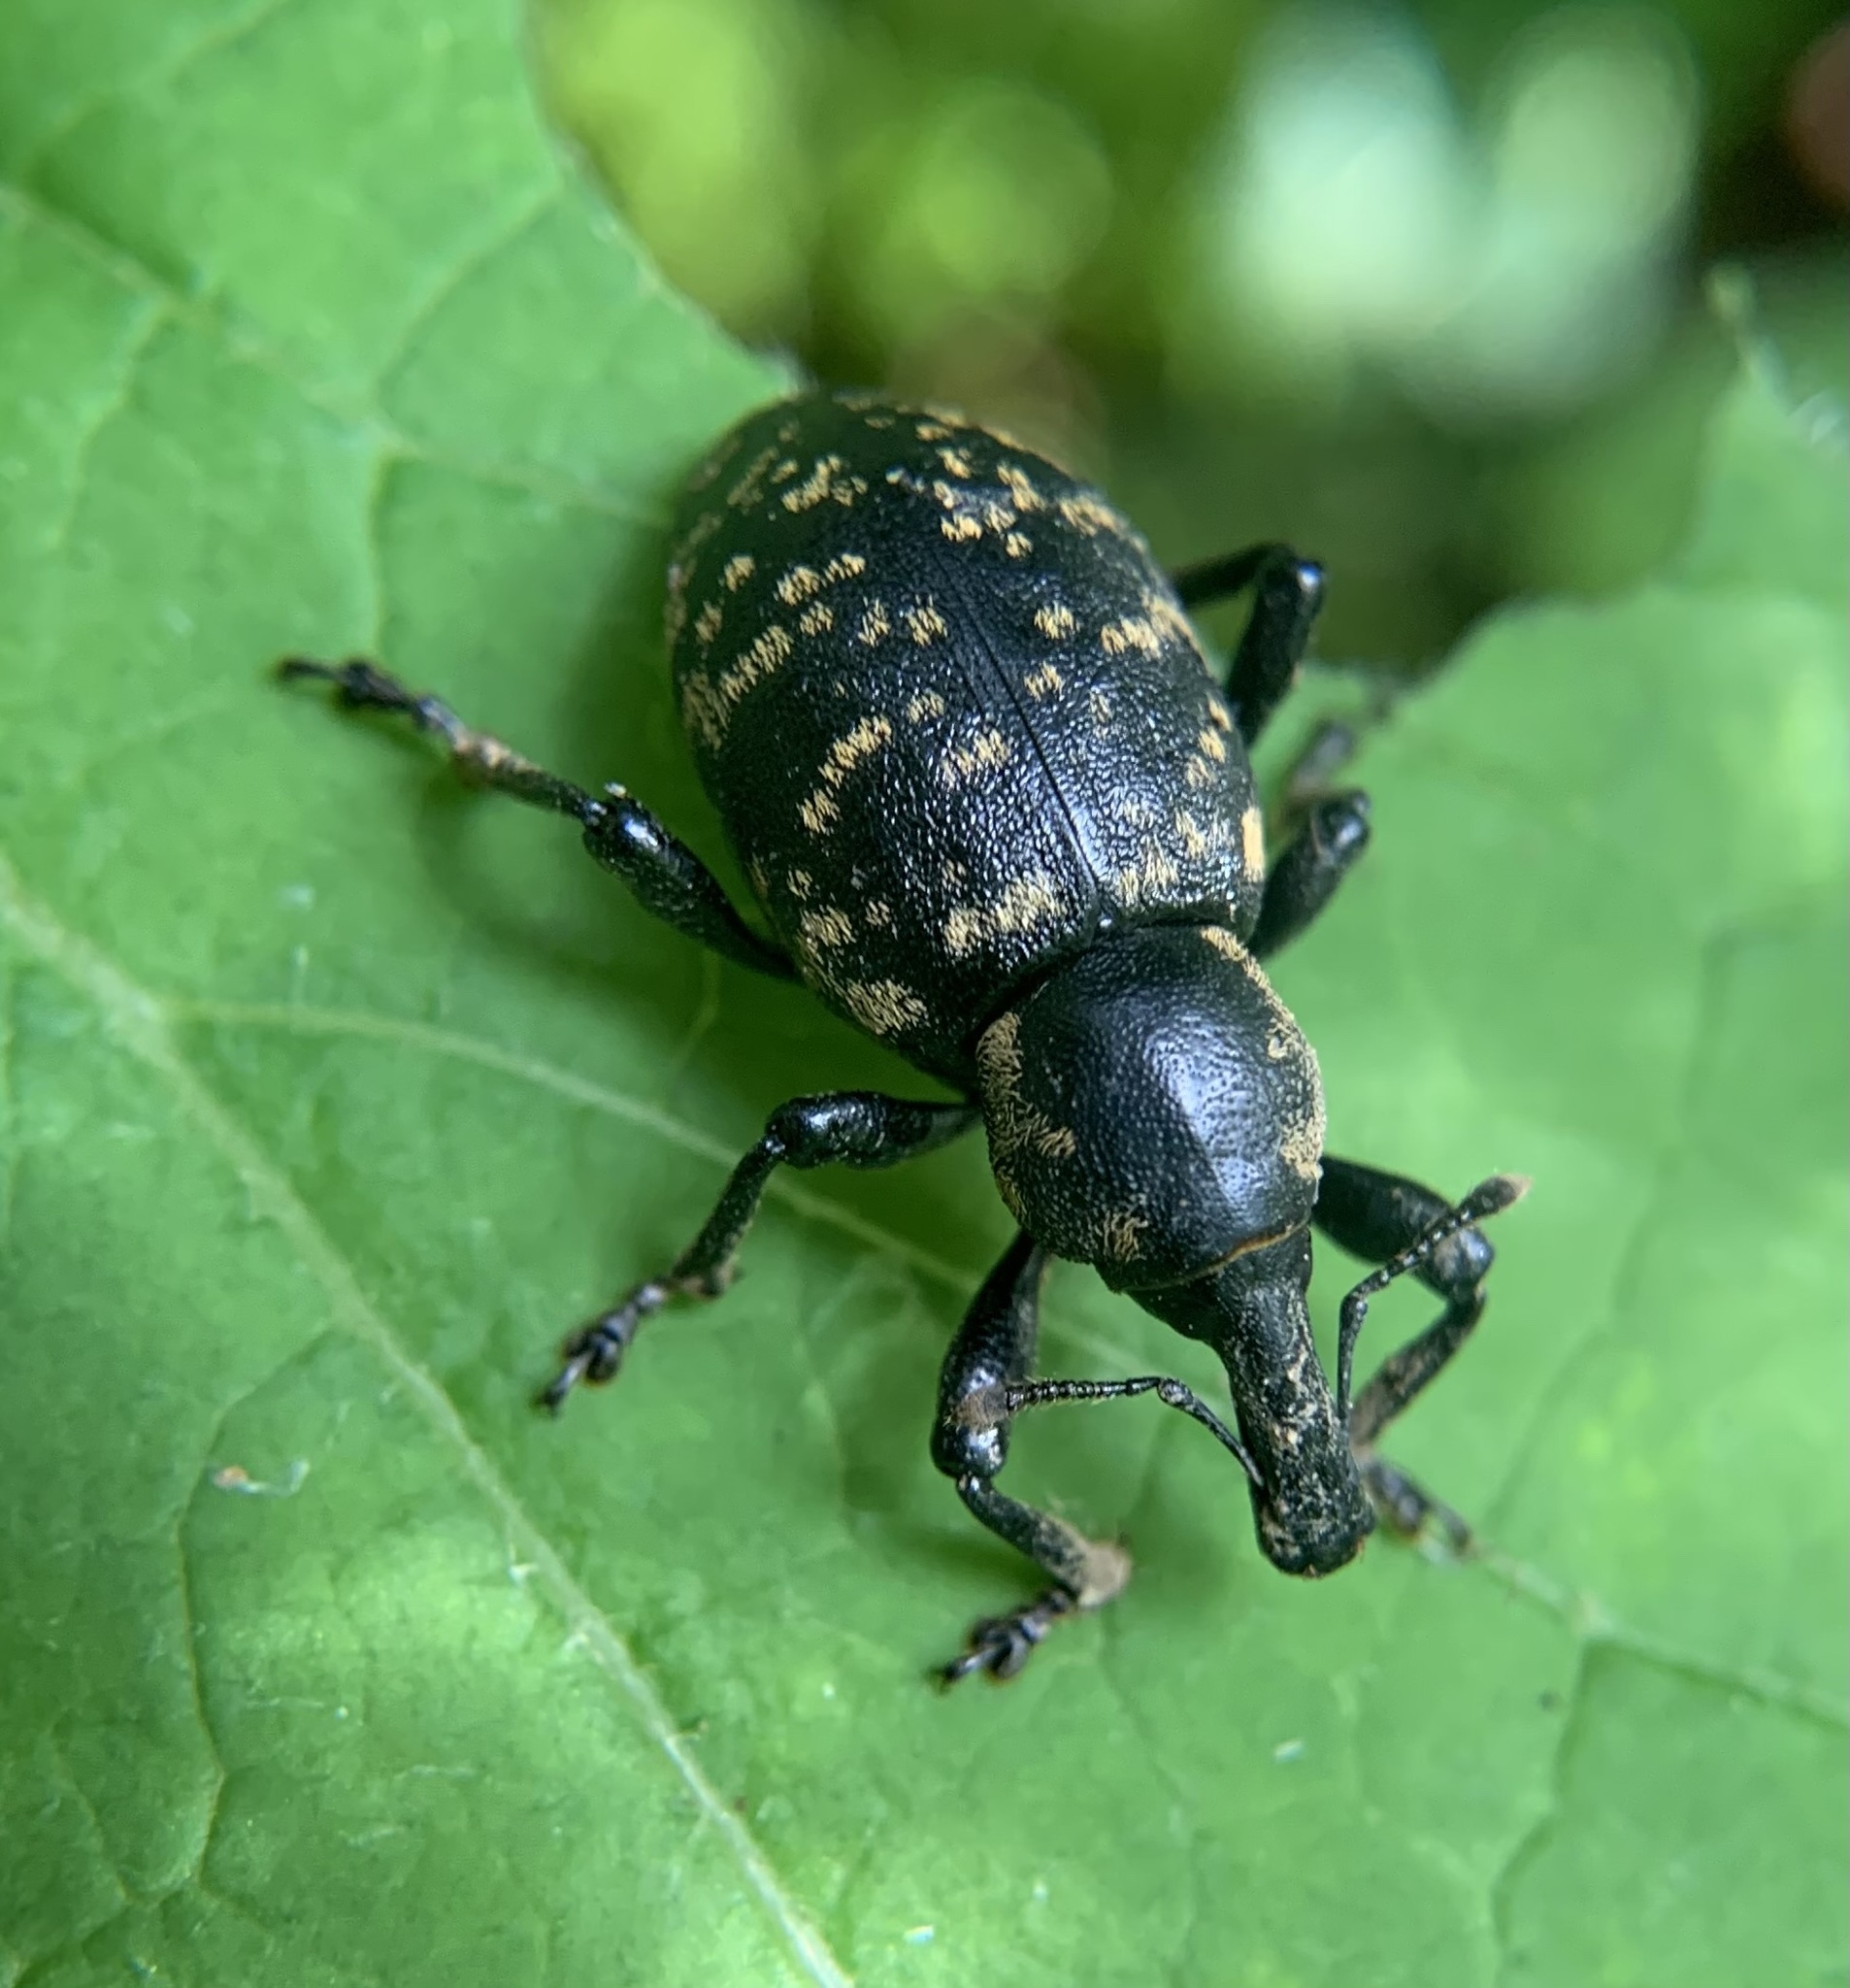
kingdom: Animalia
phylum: Arthropoda
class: Insecta
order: Coleoptera
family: Curculionidae
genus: Liparus
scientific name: Liparus glabrirostris
